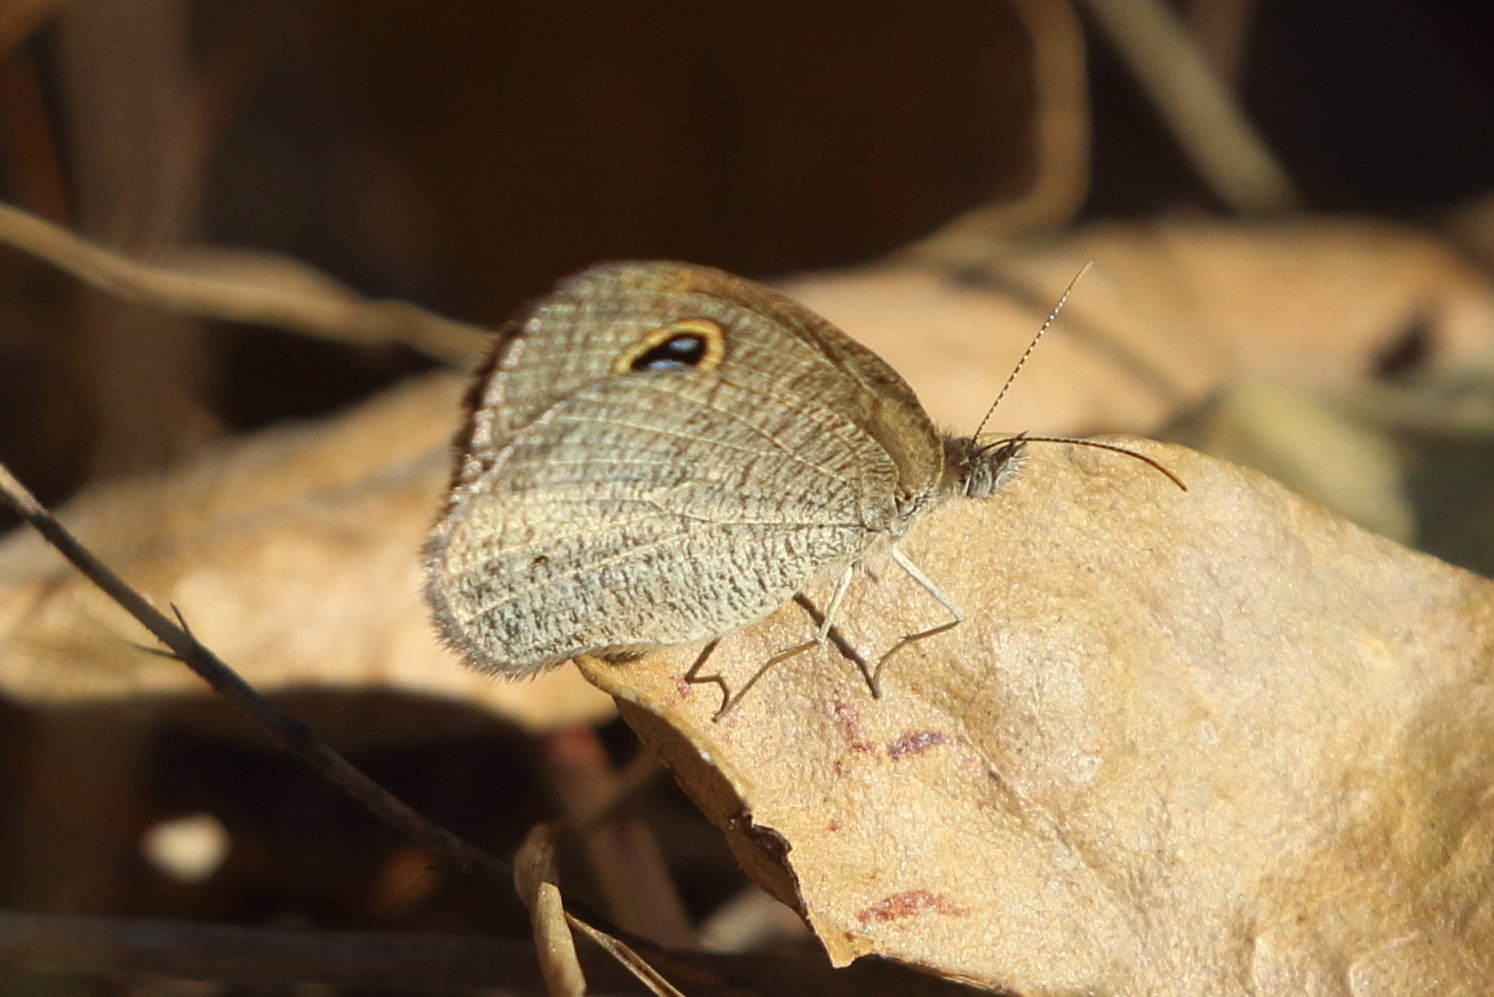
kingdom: Animalia
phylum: Arthropoda
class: Insecta
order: Lepidoptera
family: Nymphalidae
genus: Ypthima
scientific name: Ypthima arctous
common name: Dusky knight
